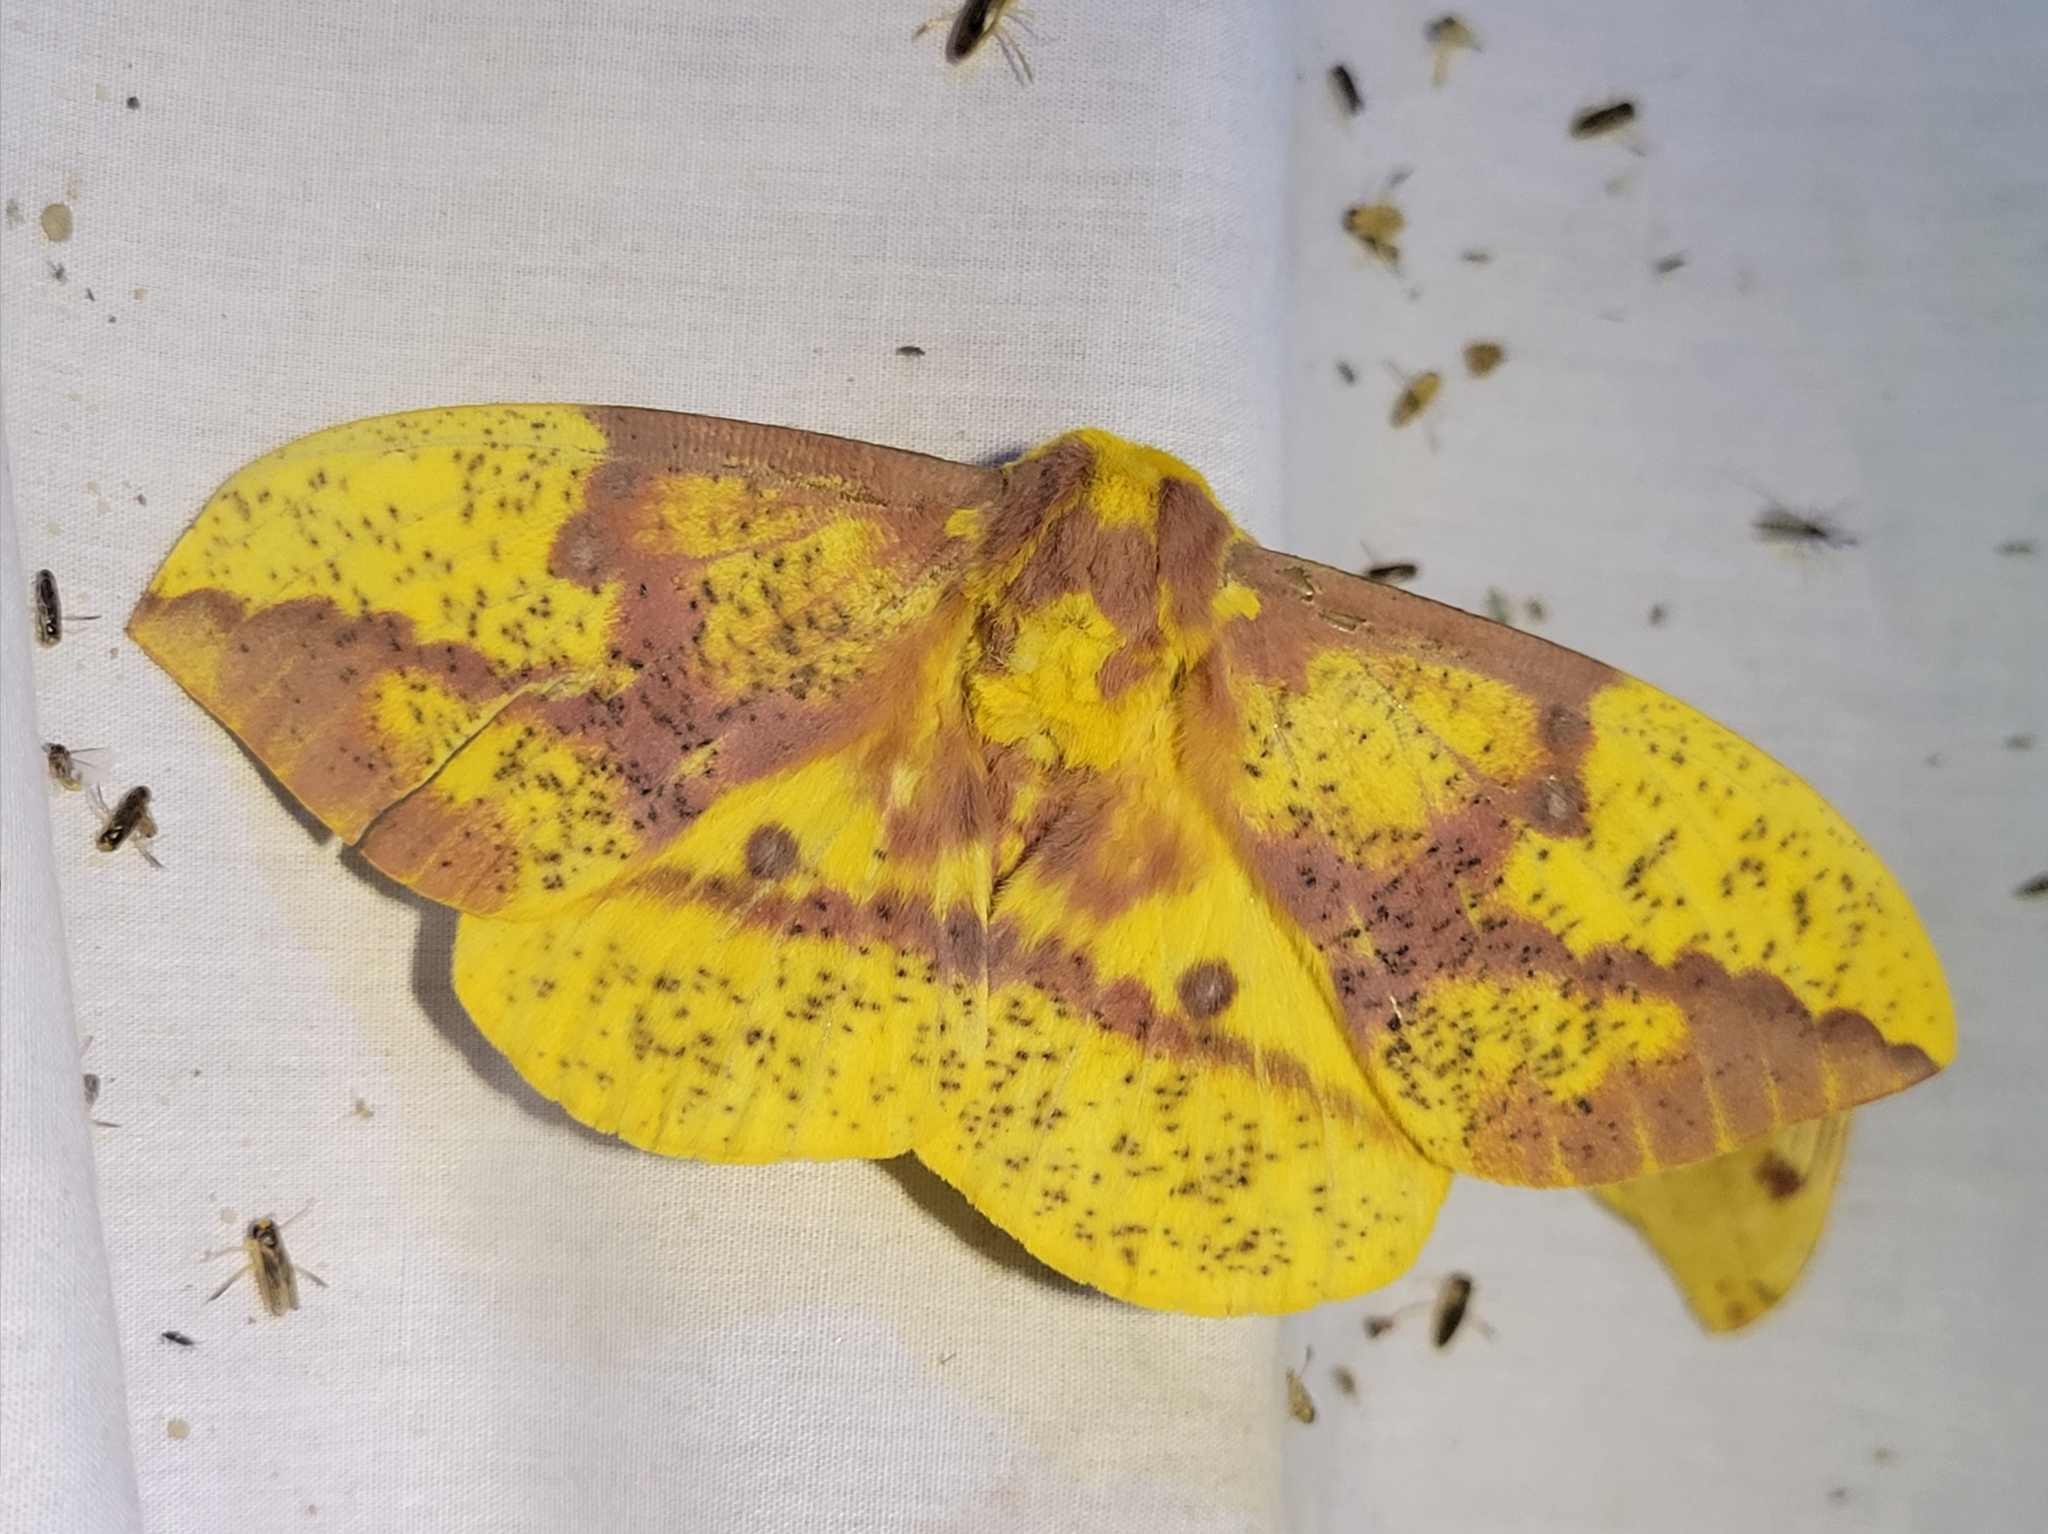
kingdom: Animalia
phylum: Arthropoda
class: Insecta
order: Lepidoptera
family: Saturniidae
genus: Eacles
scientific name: Eacles imperialis
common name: Imperial moth
